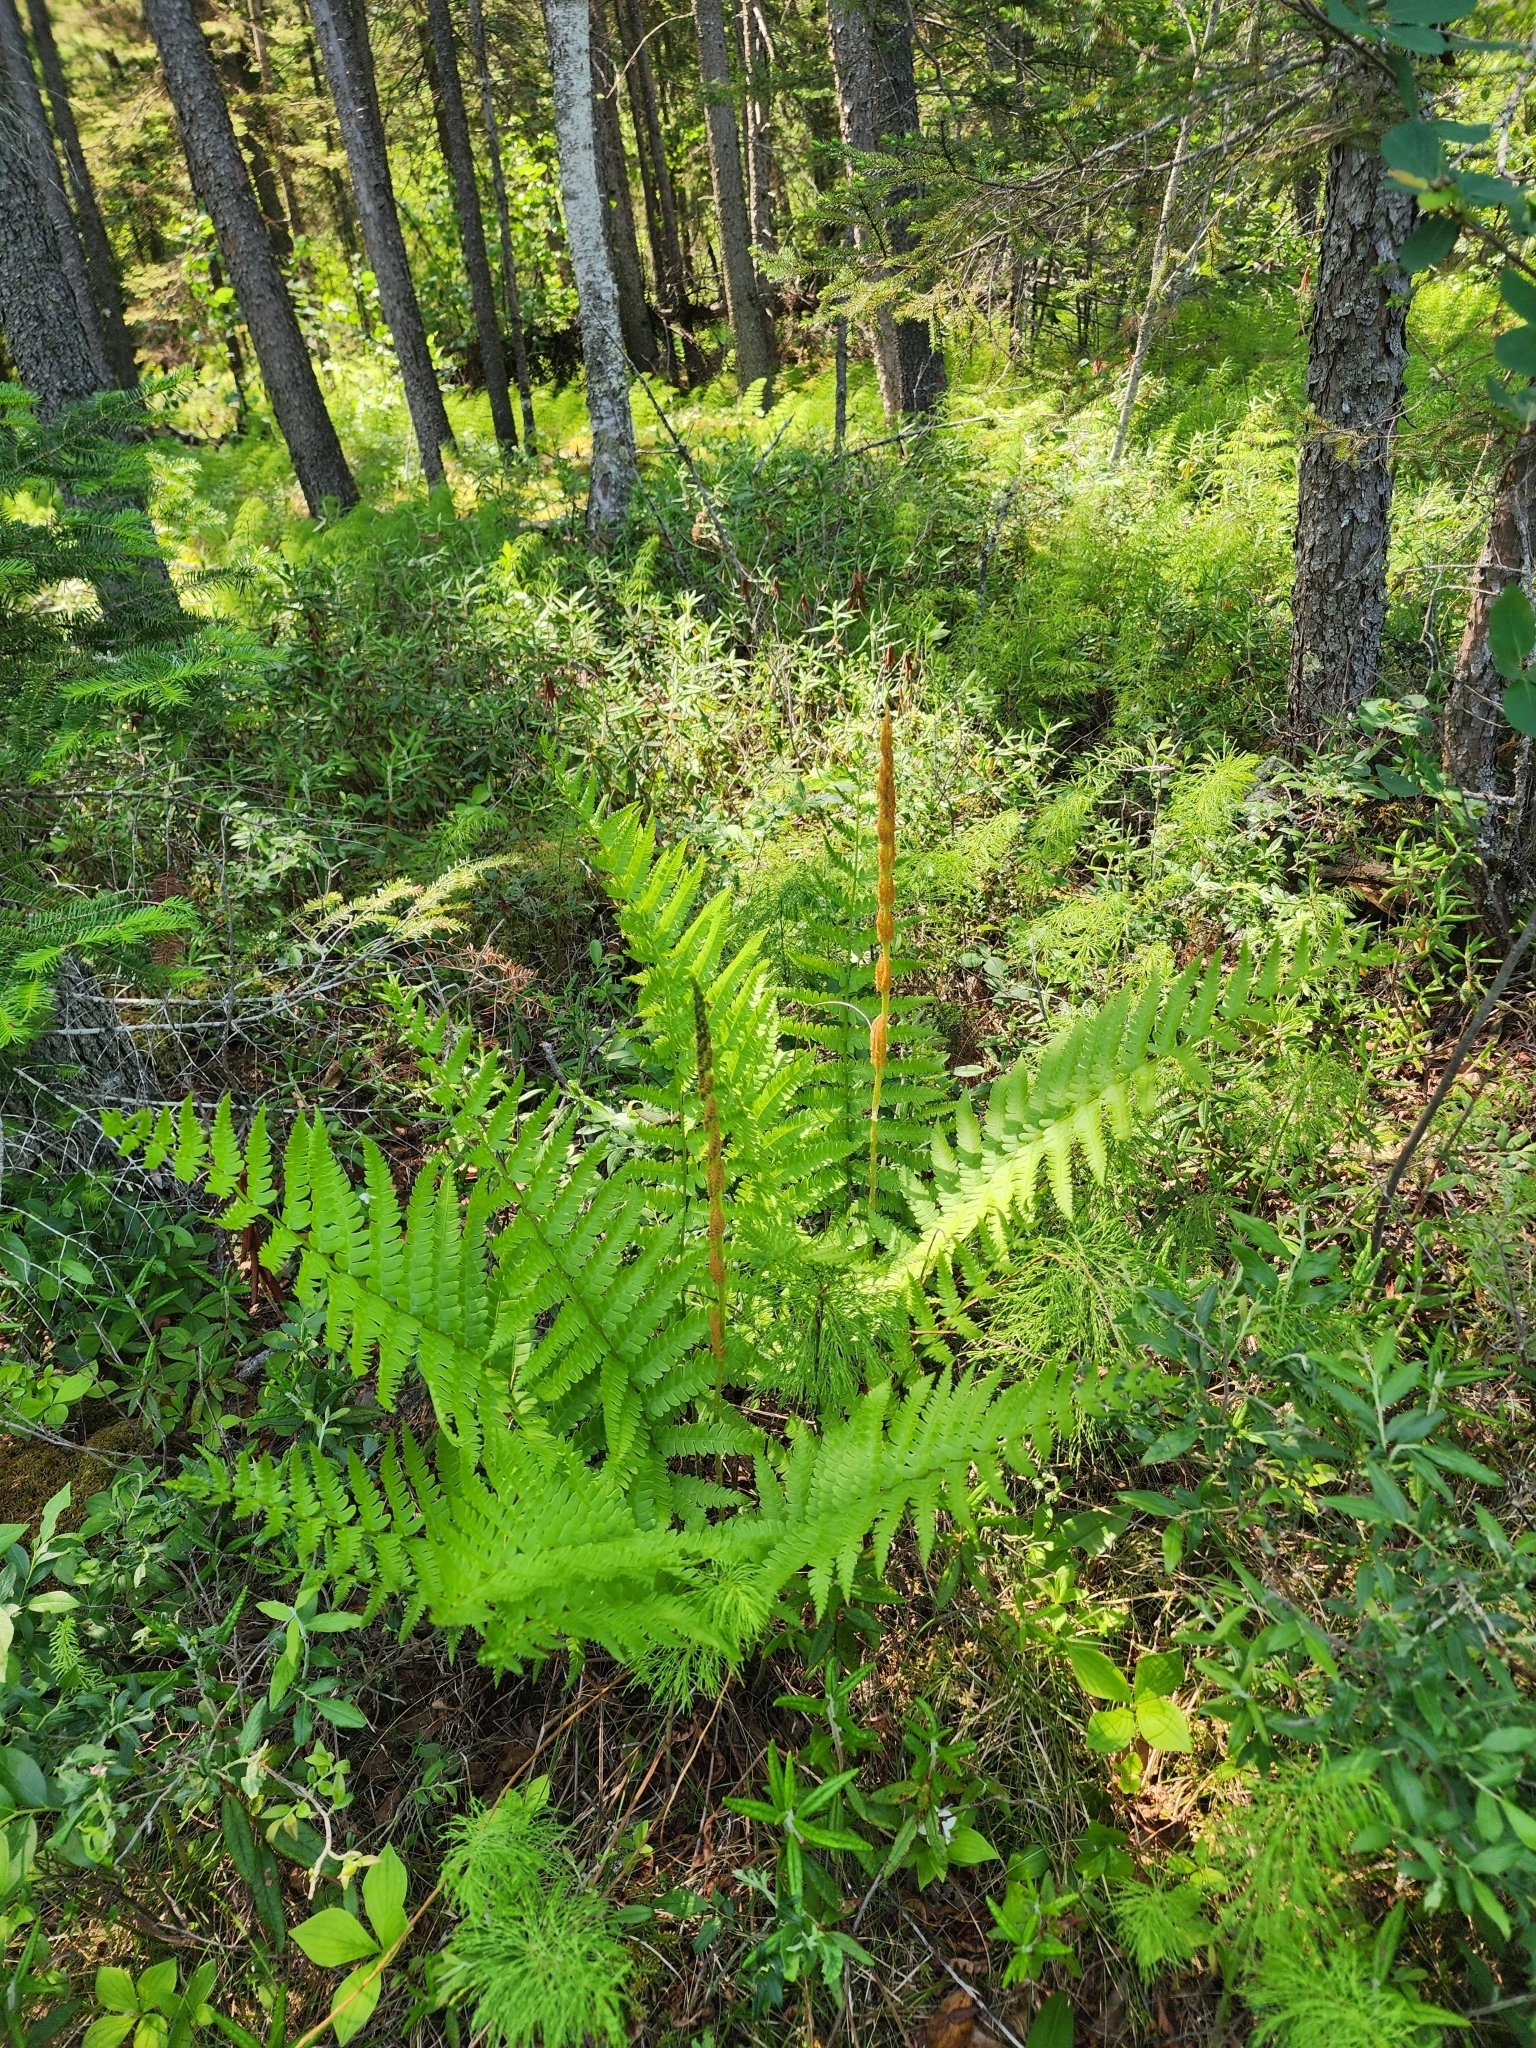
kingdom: Plantae
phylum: Tracheophyta
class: Polypodiopsida
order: Osmundales
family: Osmundaceae
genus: Osmundastrum
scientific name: Osmundastrum cinnamomeum
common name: Cinnamon fern
